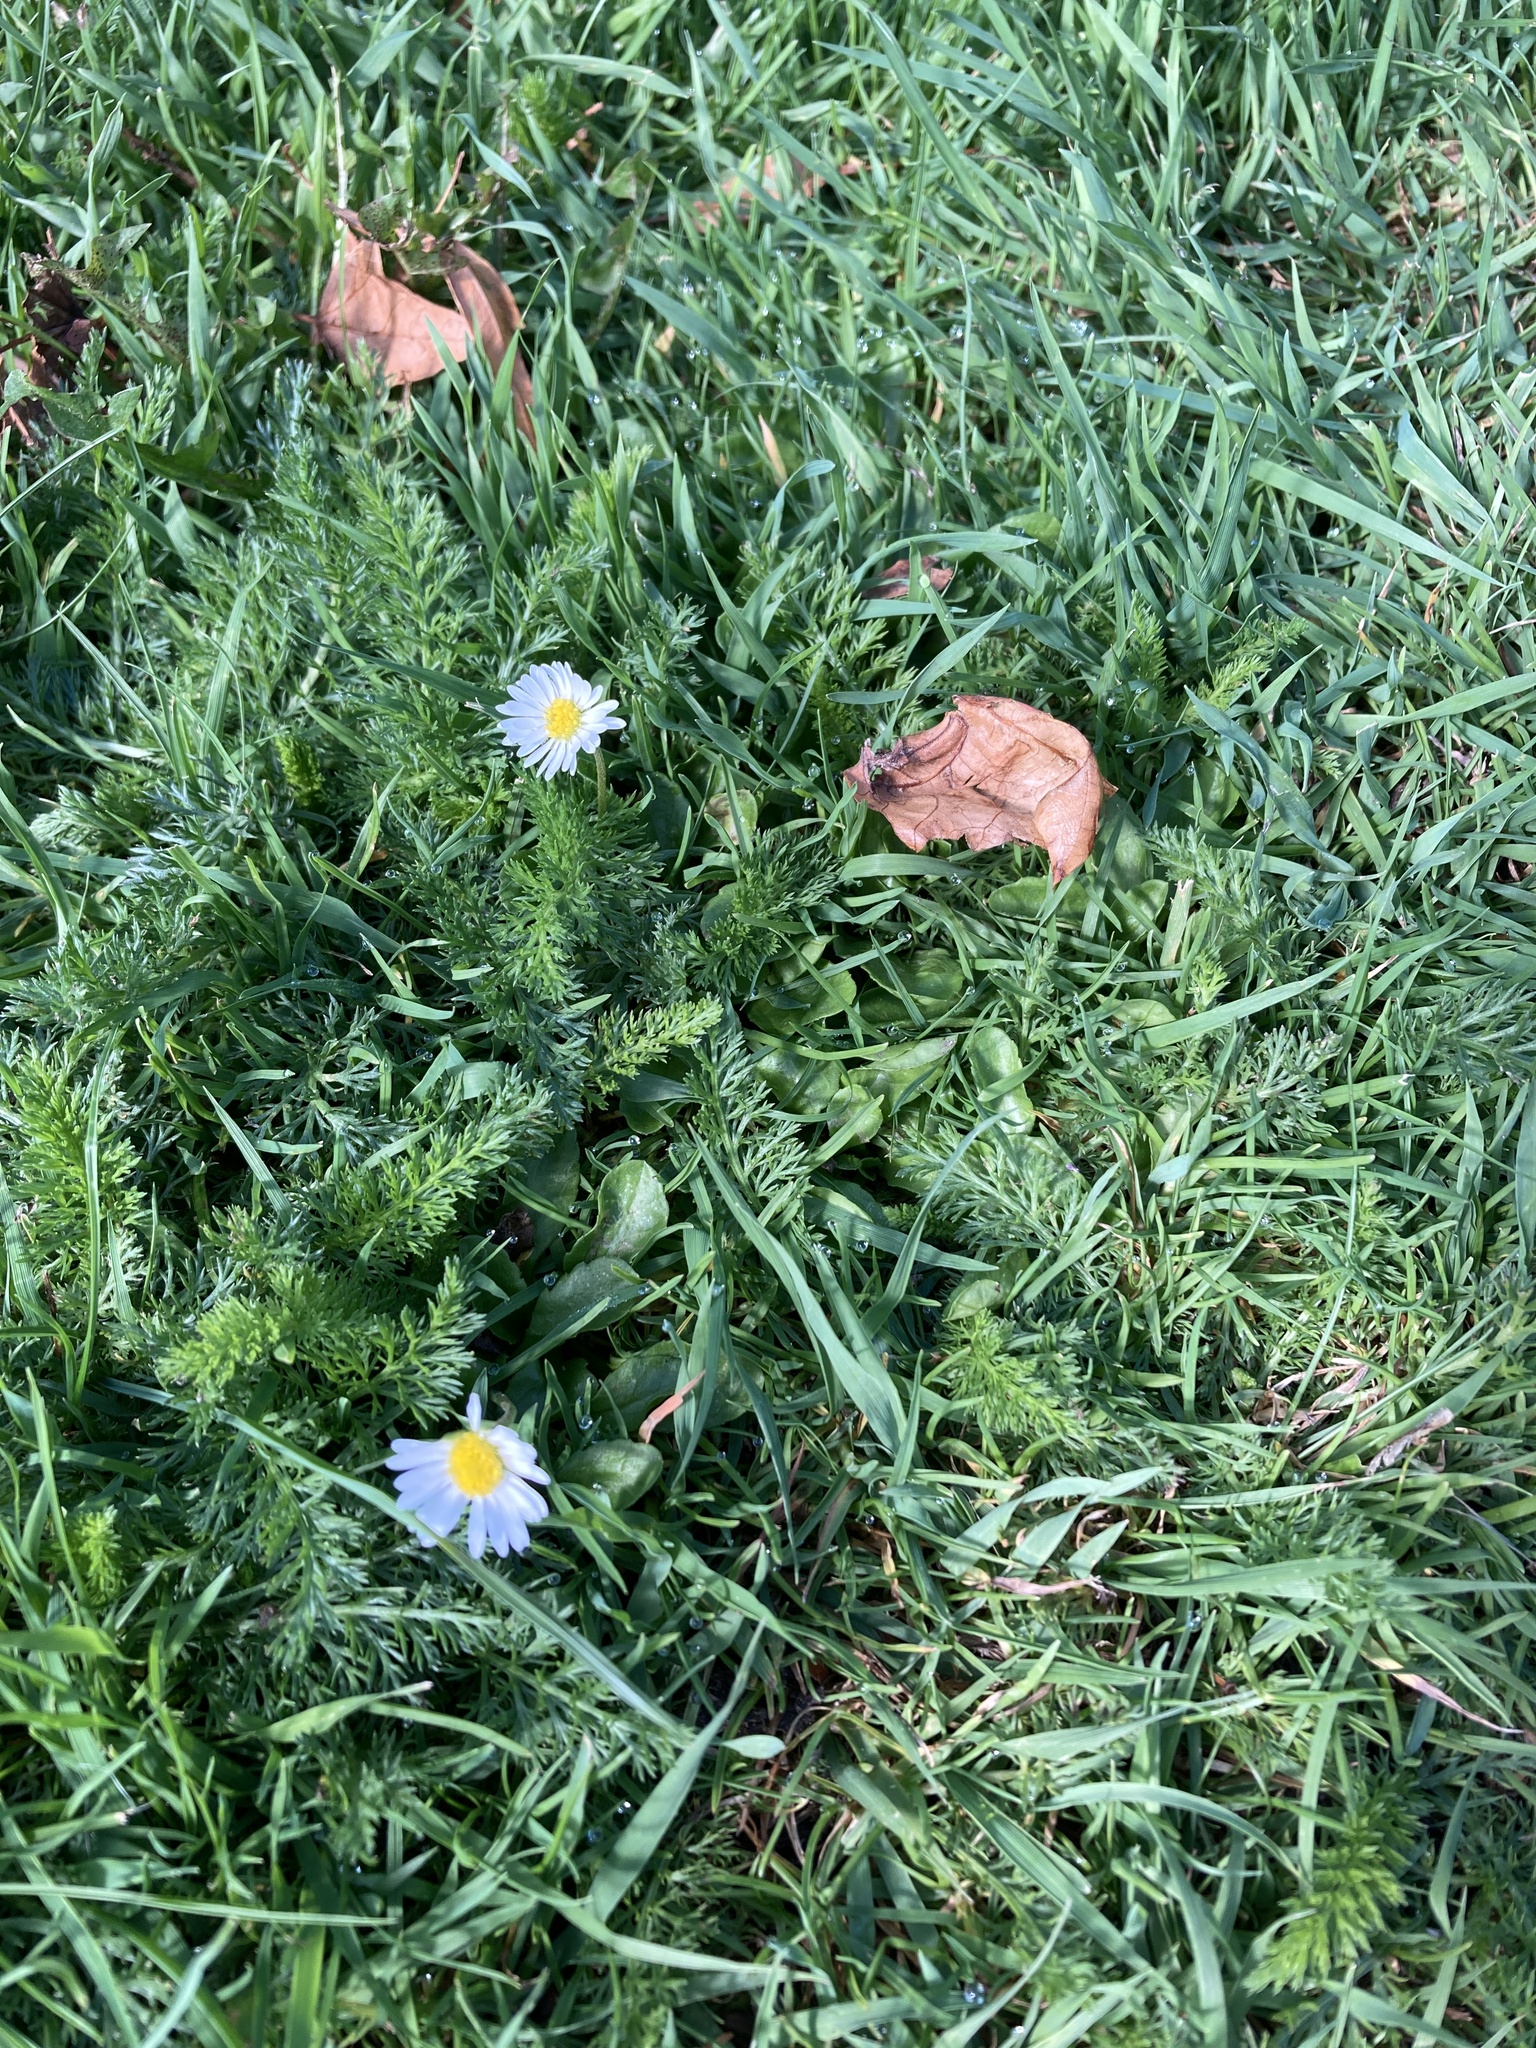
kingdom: Plantae
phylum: Tracheophyta
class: Magnoliopsida
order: Asterales
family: Asteraceae
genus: Bellis
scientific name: Bellis perennis
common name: Lawndaisy
